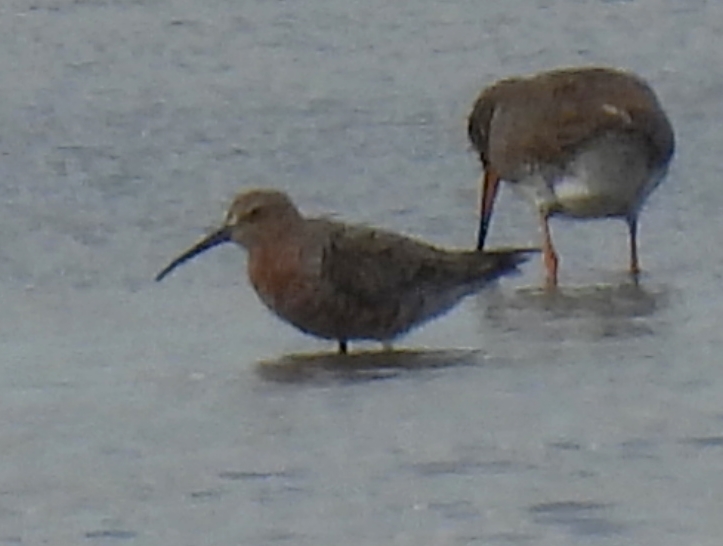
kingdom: Animalia
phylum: Chordata
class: Aves
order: Charadriiformes
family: Scolopacidae
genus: Calidris
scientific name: Calidris ferruginea
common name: Curlew sandpiper
